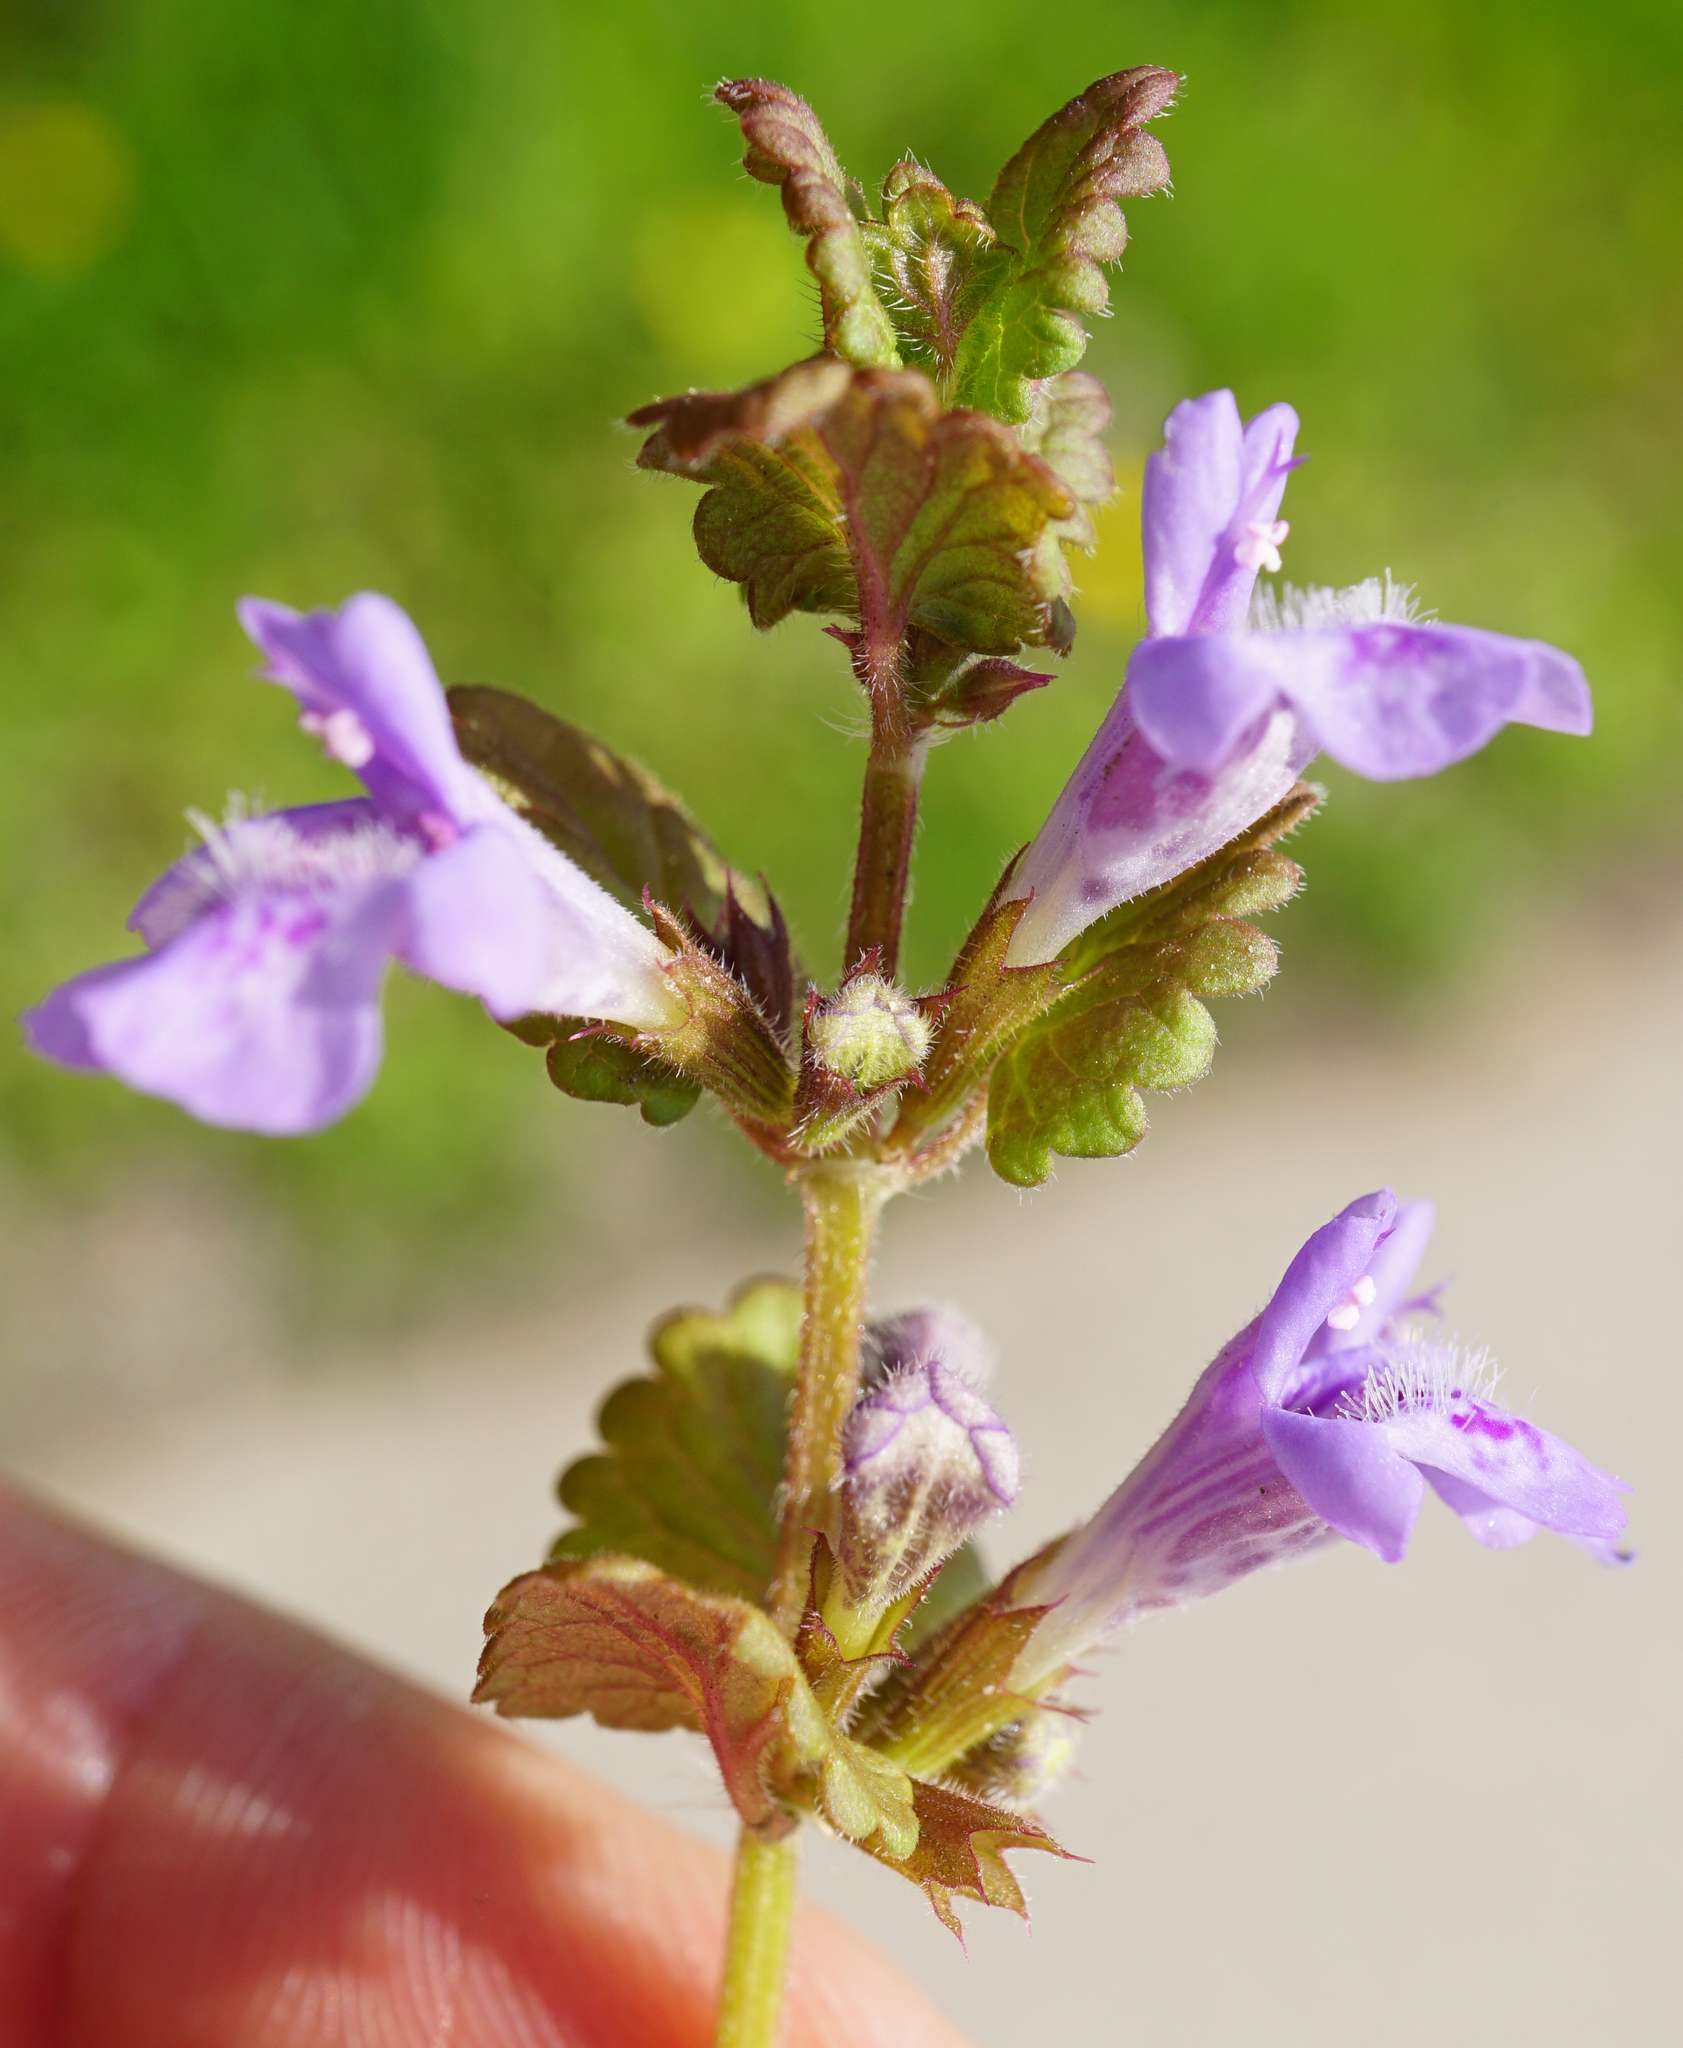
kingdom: Plantae
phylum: Tracheophyta
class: Magnoliopsida
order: Lamiales
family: Lamiaceae
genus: Glechoma
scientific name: Glechoma hederacea
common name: Ground ivy
